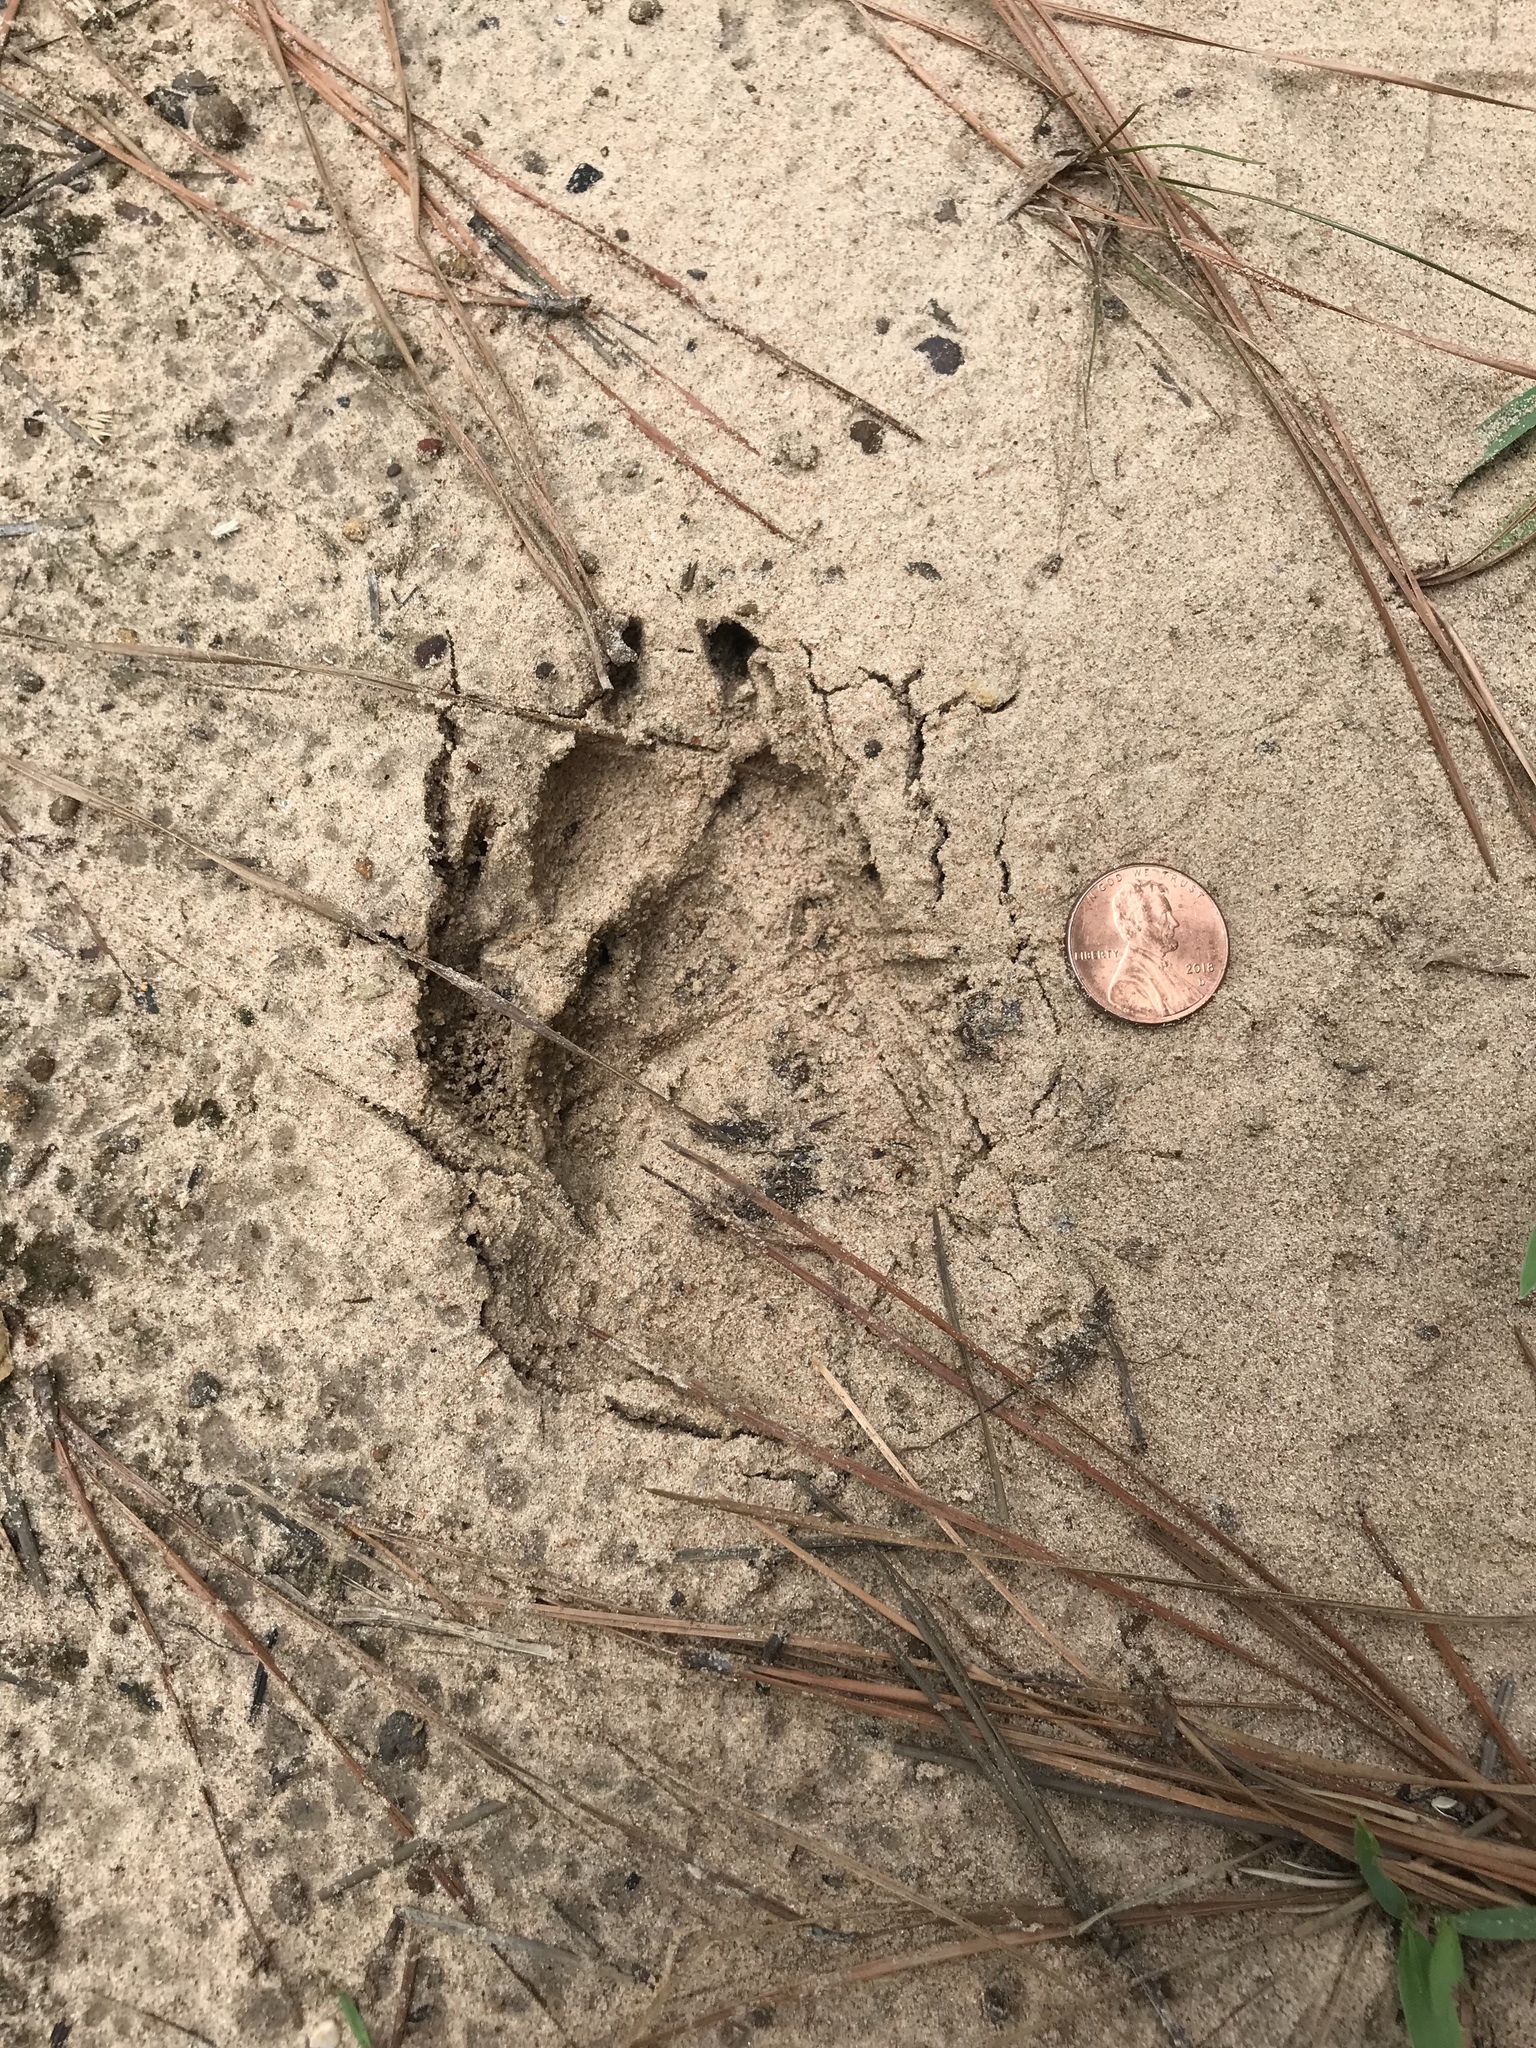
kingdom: Animalia
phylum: Chordata
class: Mammalia
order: Carnivora
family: Canidae
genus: Canis
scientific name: Canis latrans
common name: Coyote
